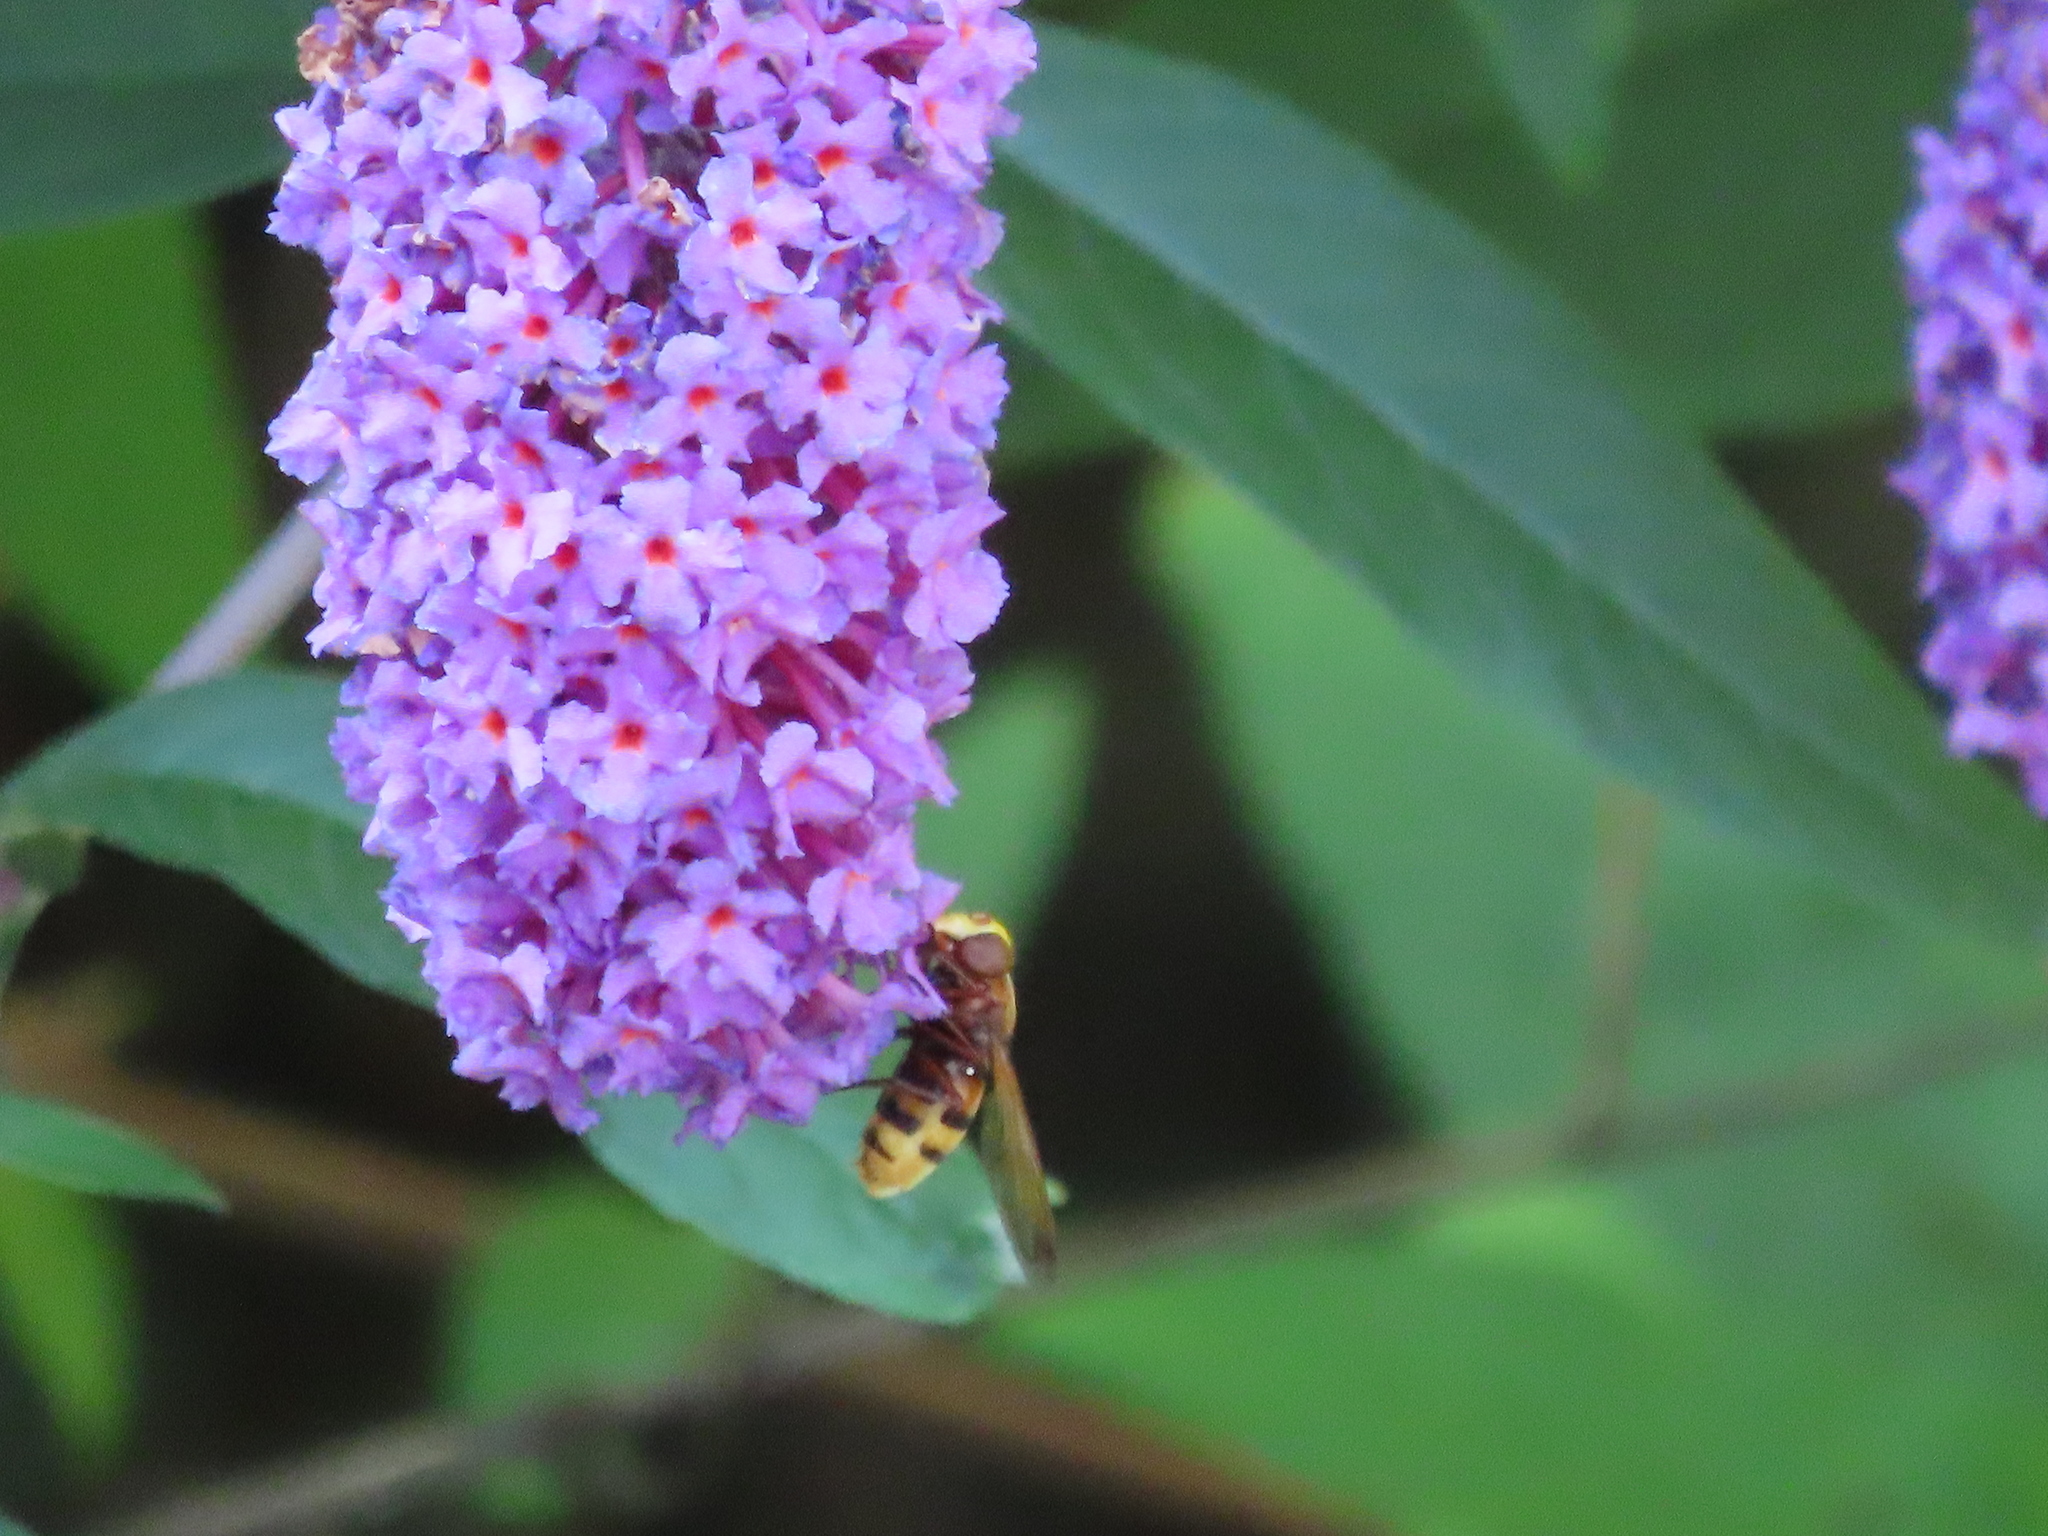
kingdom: Animalia
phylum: Arthropoda
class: Insecta
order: Diptera
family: Syrphidae
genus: Volucella
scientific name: Volucella zonaria
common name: Hornet hoverfly
